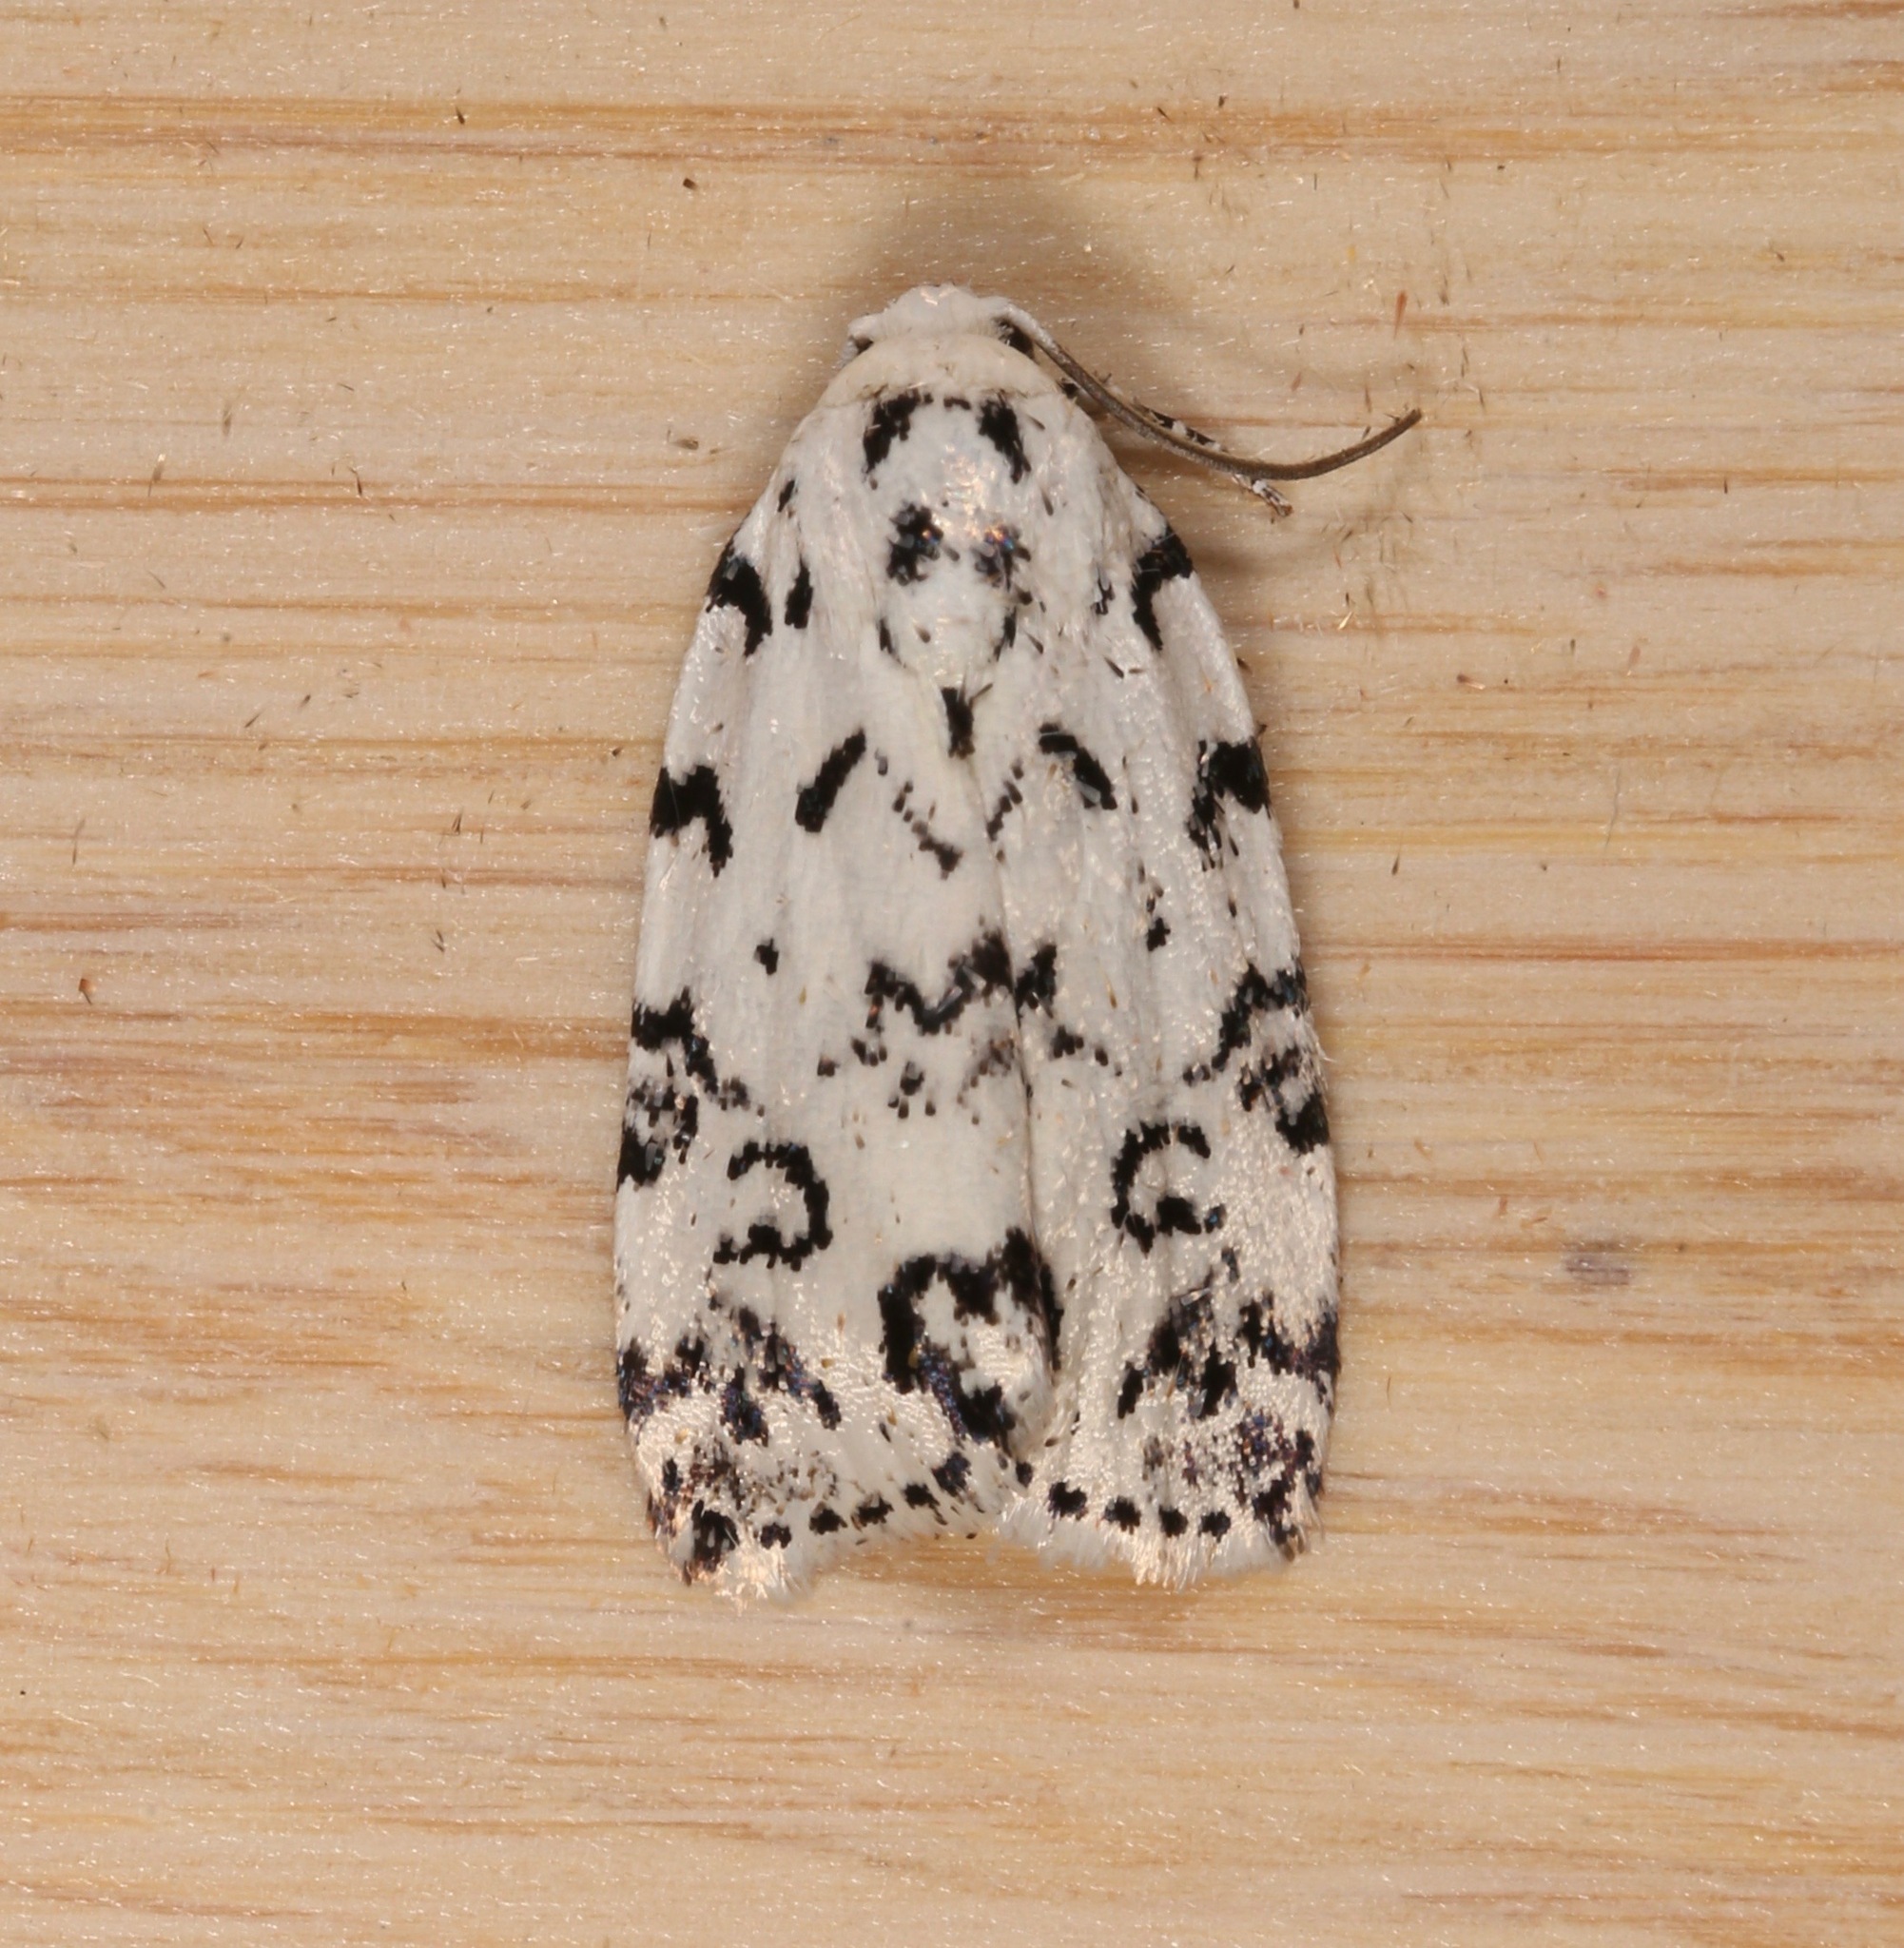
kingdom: Animalia
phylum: Arthropoda
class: Insecta
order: Lepidoptera
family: Noctuidae
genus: Polygrammate
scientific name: Polygrammate hebraeicum
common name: Hebrew moth
